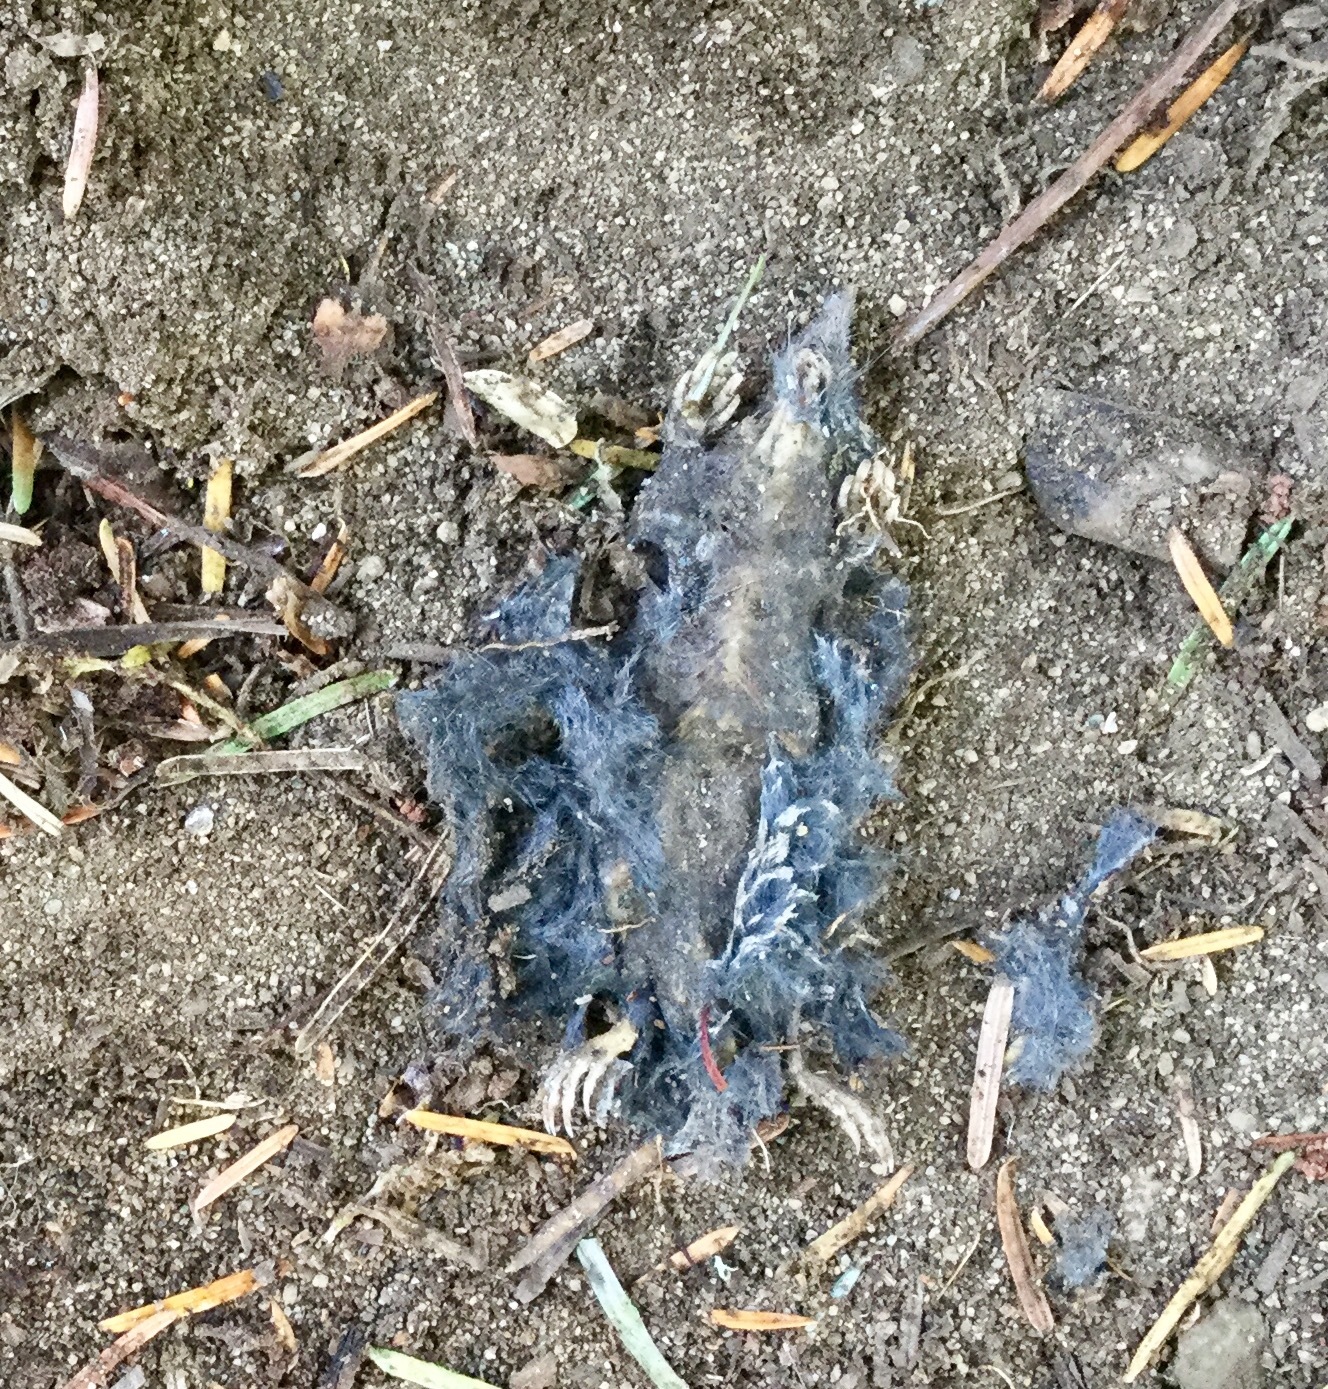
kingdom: Animalia
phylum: Chordata
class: Mammalia
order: Soricomorpha
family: Talpidae
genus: Neurotrichus
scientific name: Neurotrichus gibbsii
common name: American shrew mole
